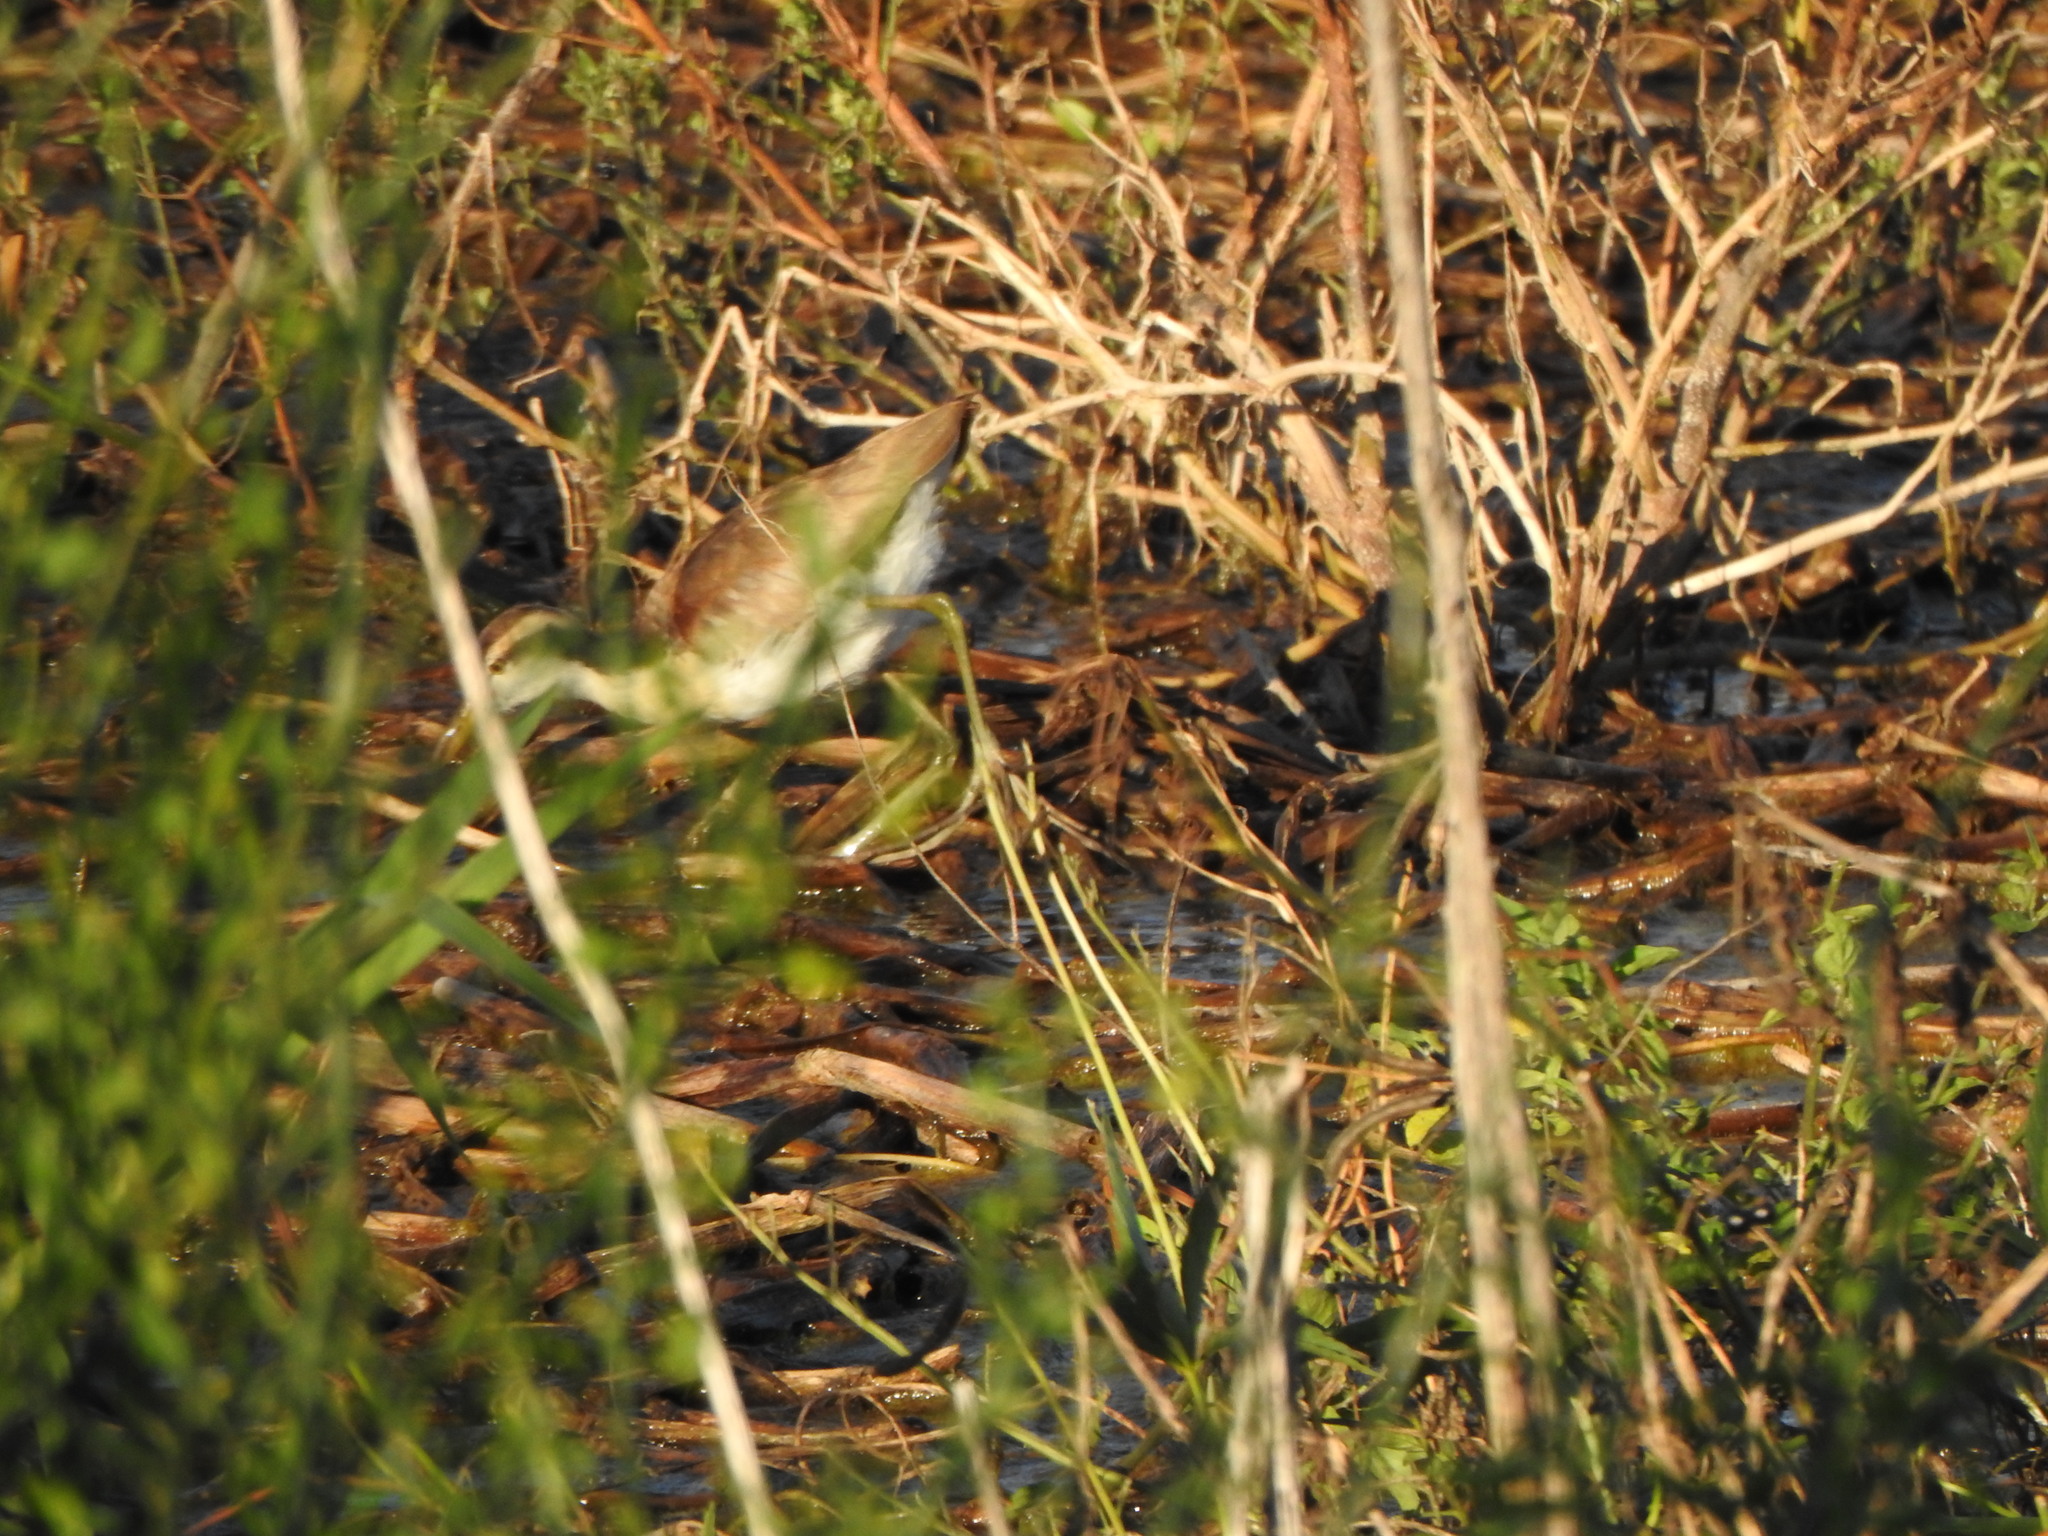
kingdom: Animalia
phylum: Chordata
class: Aves
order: Charadriiformes
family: Jacanidae
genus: Jacana
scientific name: Jacana jacana
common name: Wattled jacana
